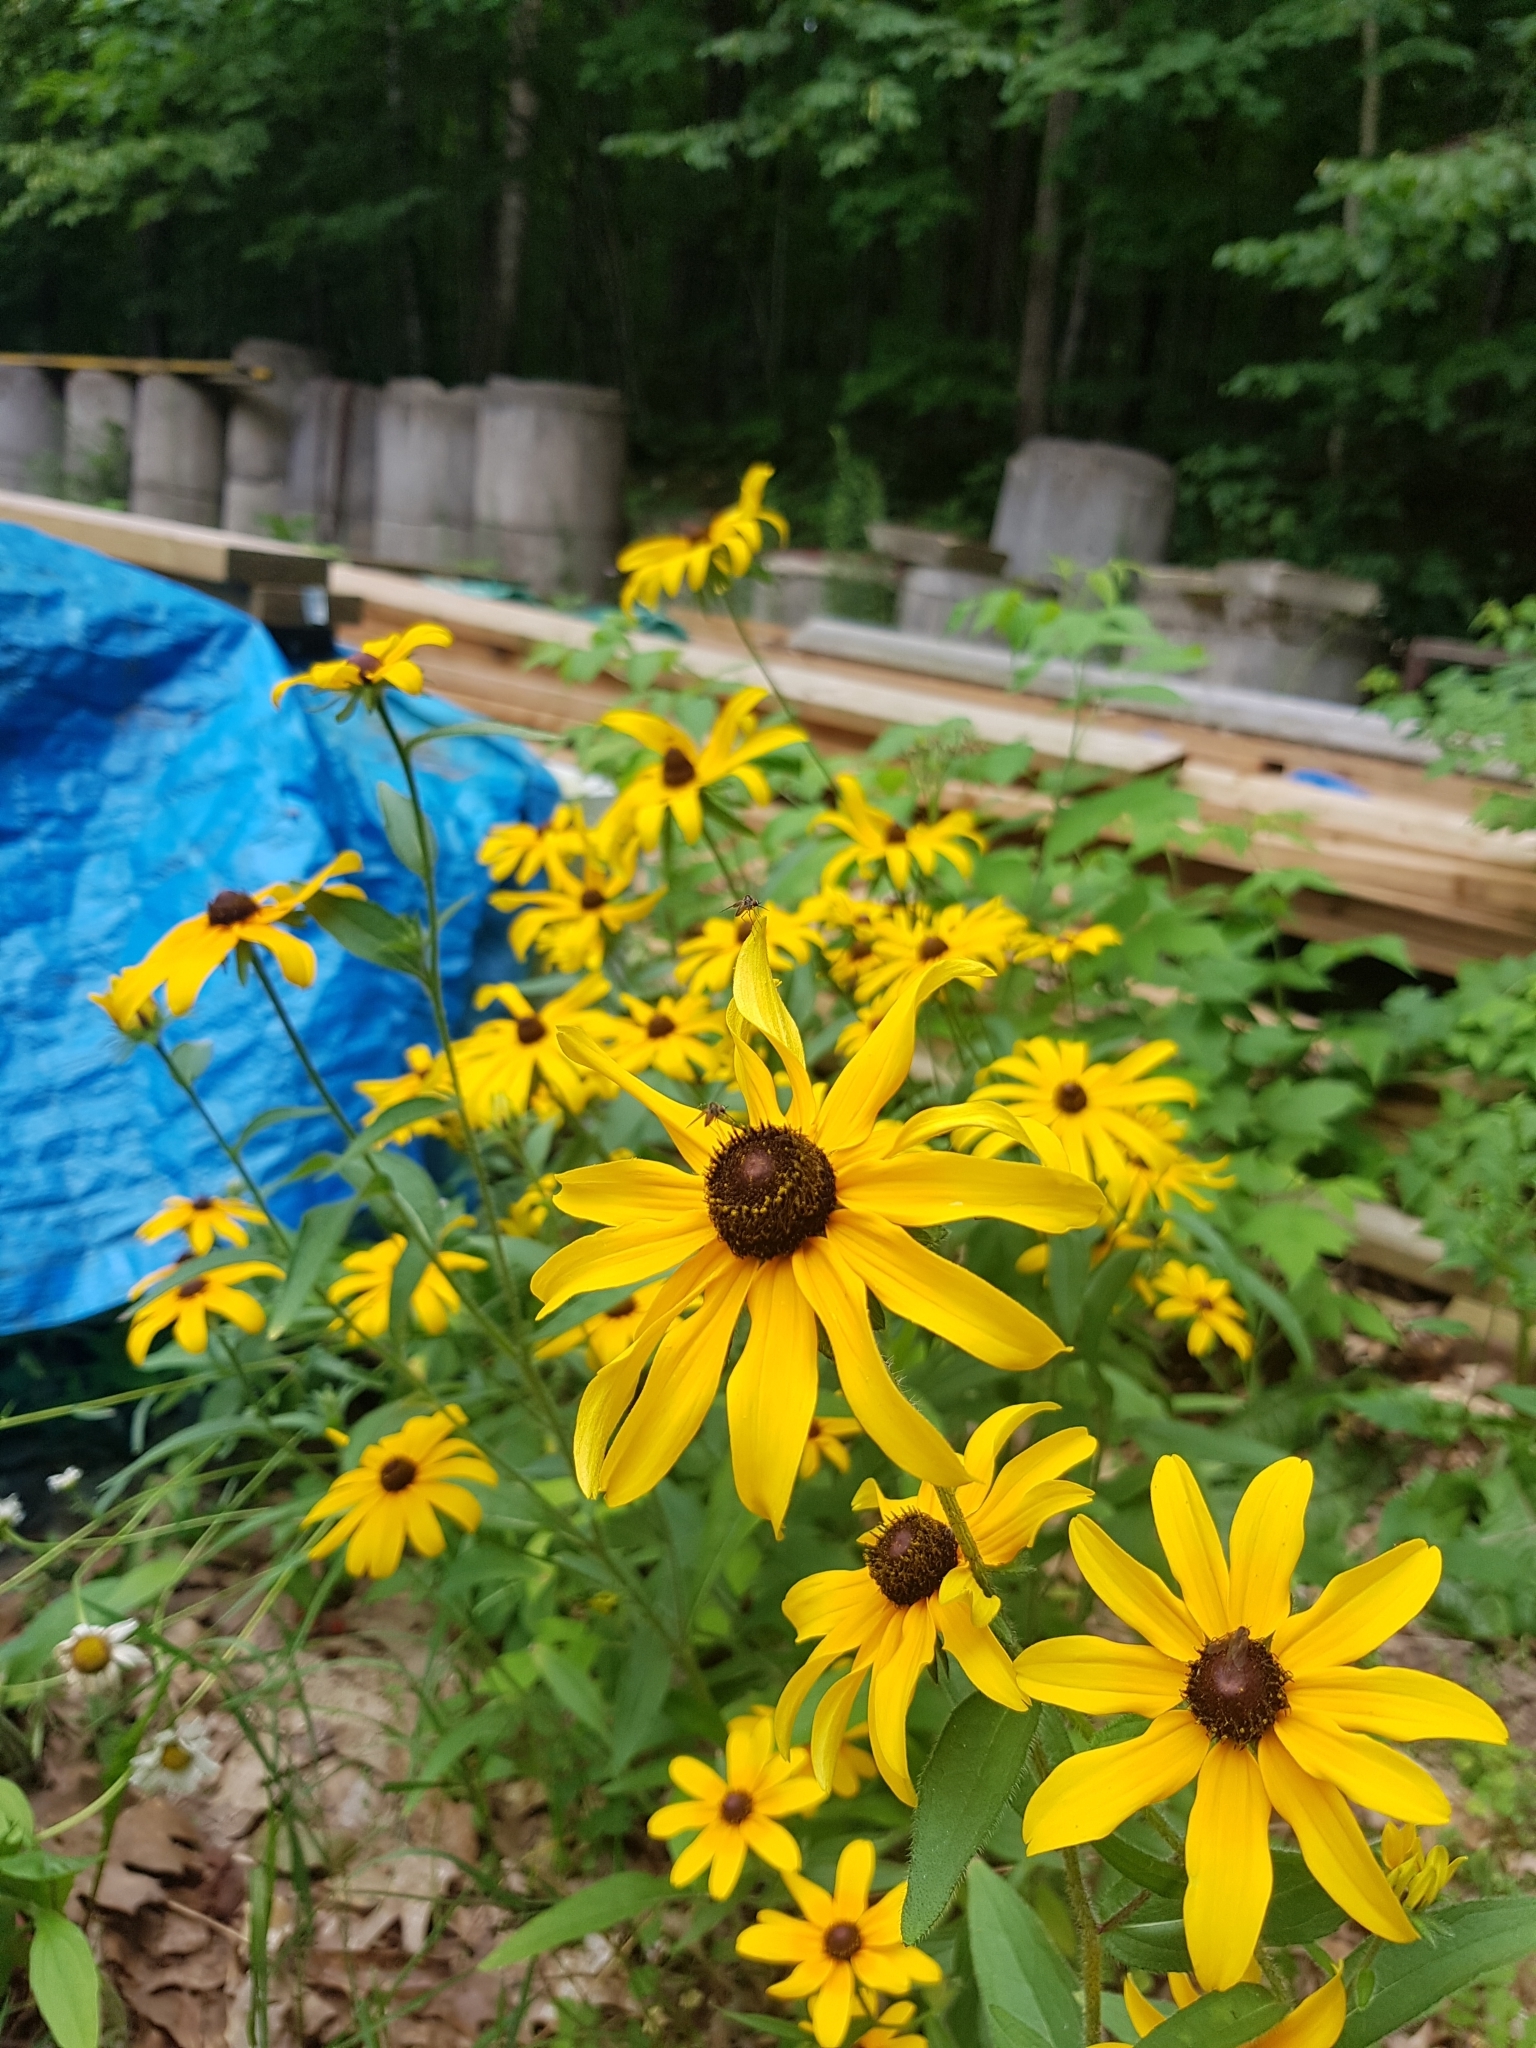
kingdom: Plantae
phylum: Tracheophyta
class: Magnoliopsida
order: Asterales
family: Asteraceae
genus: Rudbeckia
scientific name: Rudbeckia hirta
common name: Black-eyed-susan
